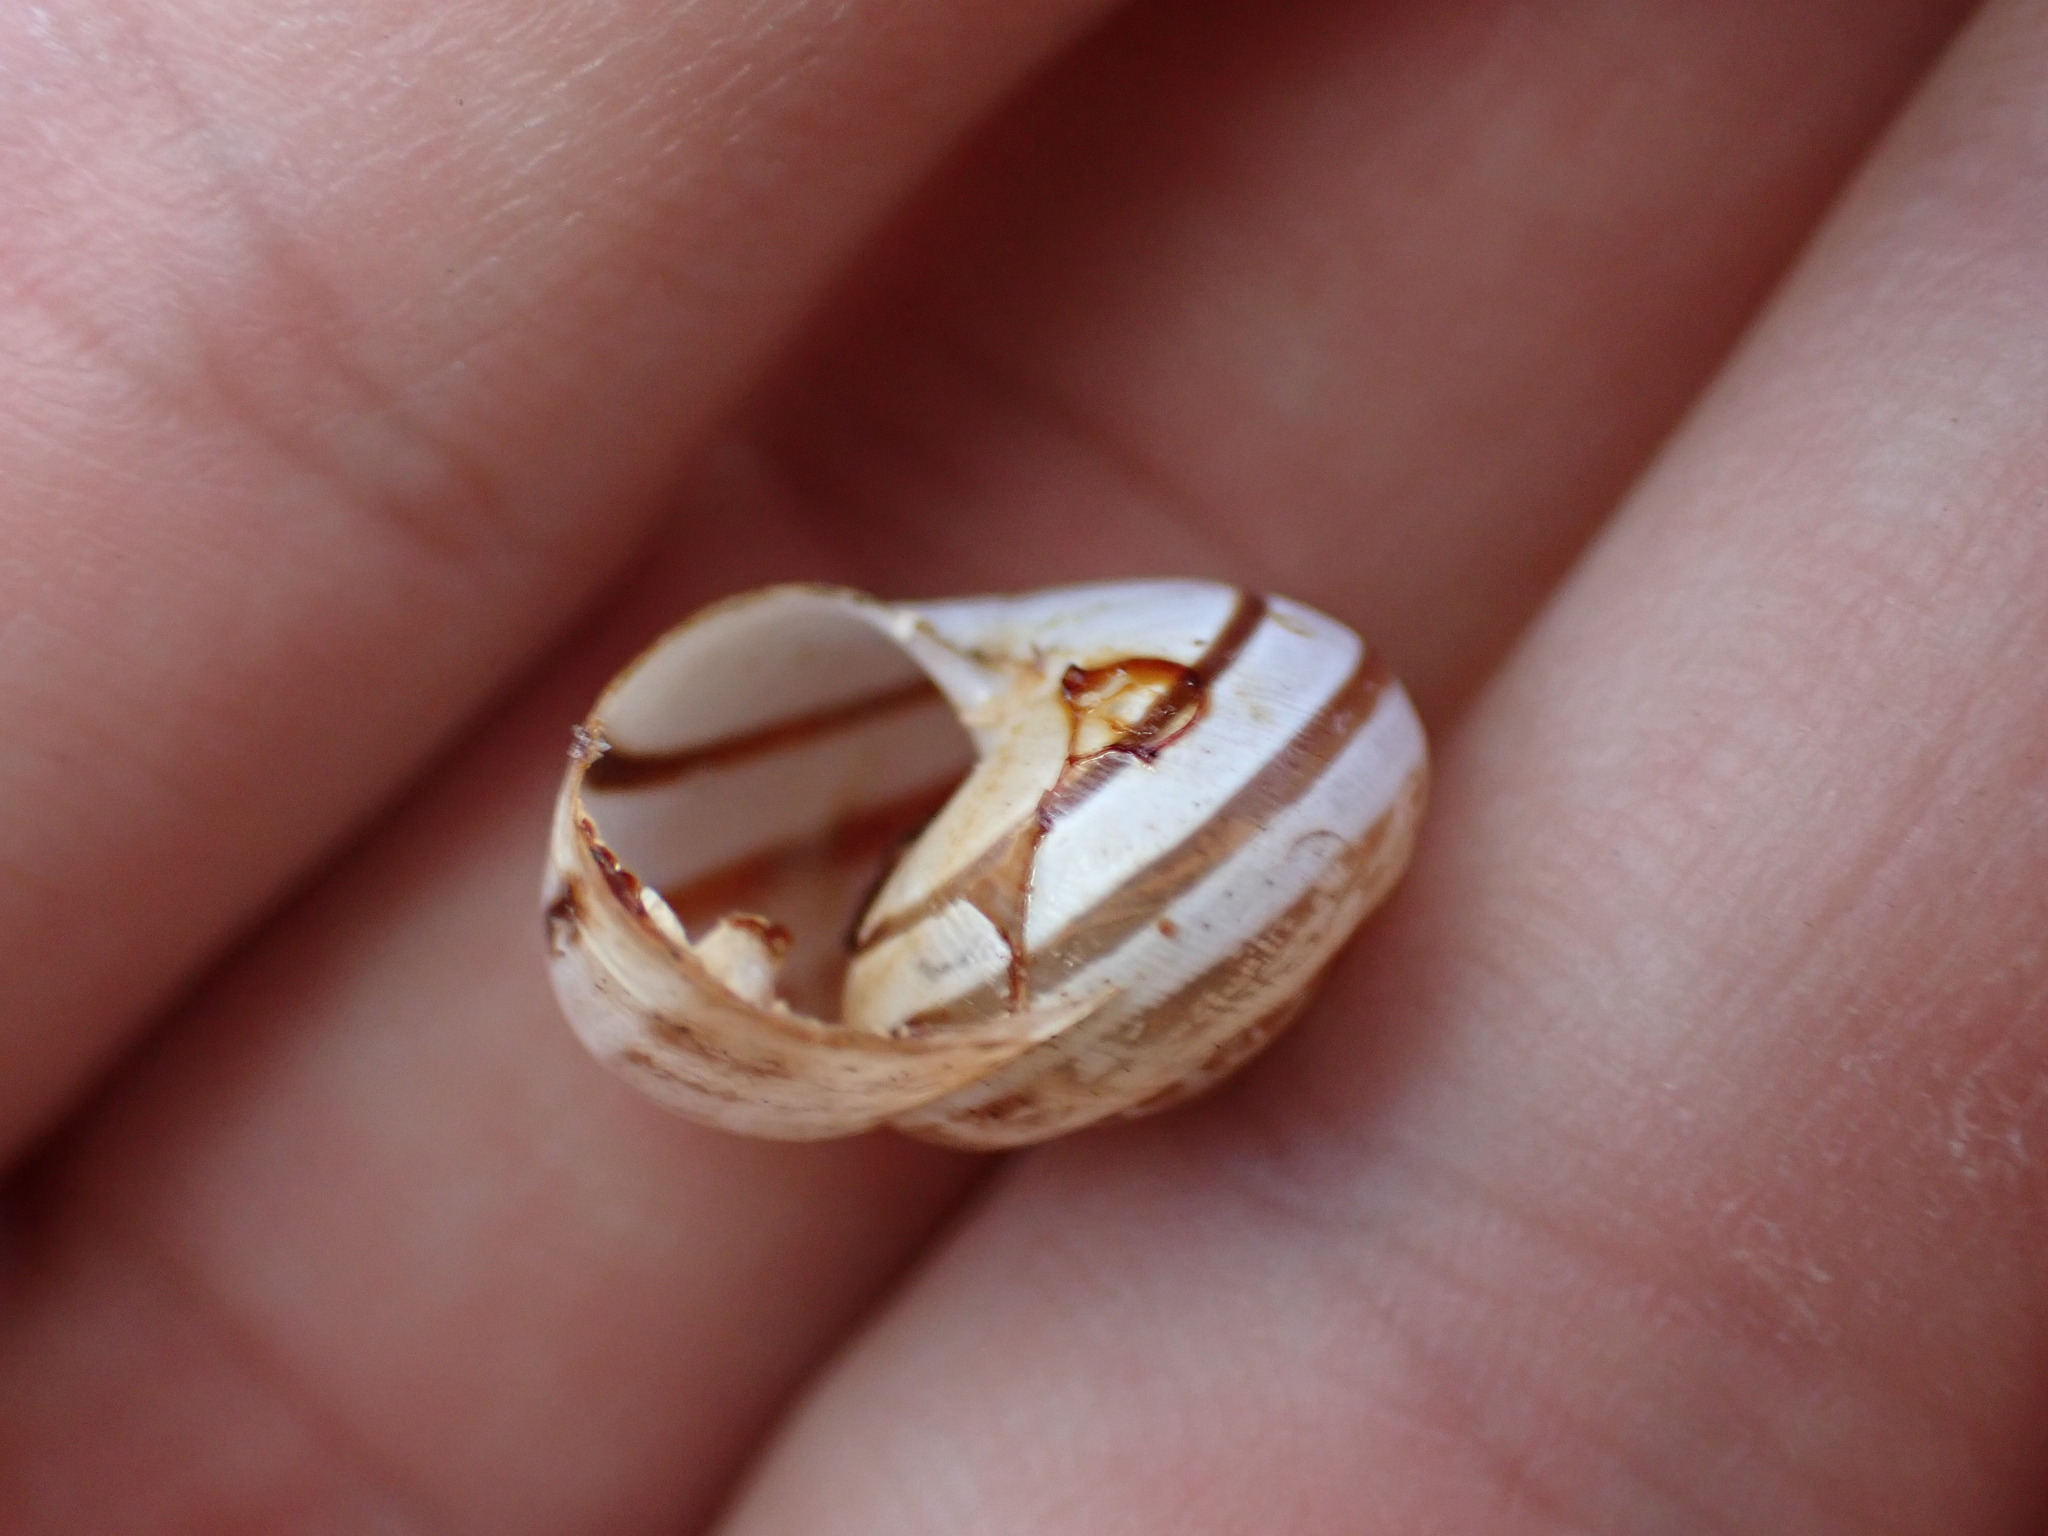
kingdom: Animalia
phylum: Mollusca
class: Gastropoda
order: Stylommatophora
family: Helicidae
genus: Eobania
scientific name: Eobania vermiculata
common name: Chocolateband snail
